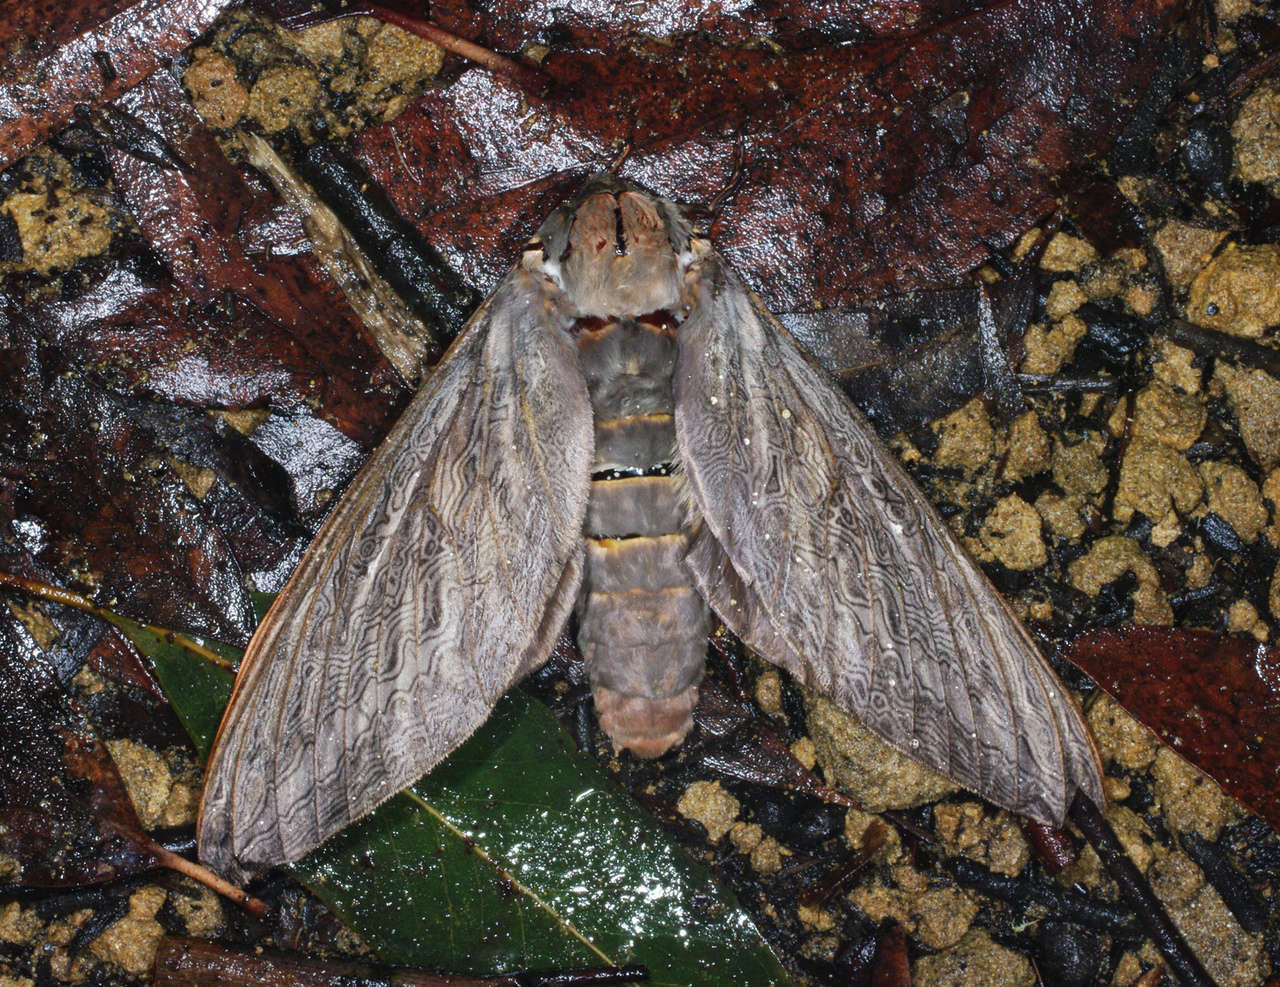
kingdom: Animalia
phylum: Arthropoda
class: Insecta
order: Lepidoptera
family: Hepialidae
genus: Abantiades
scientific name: Abantiades labyrinthicus
